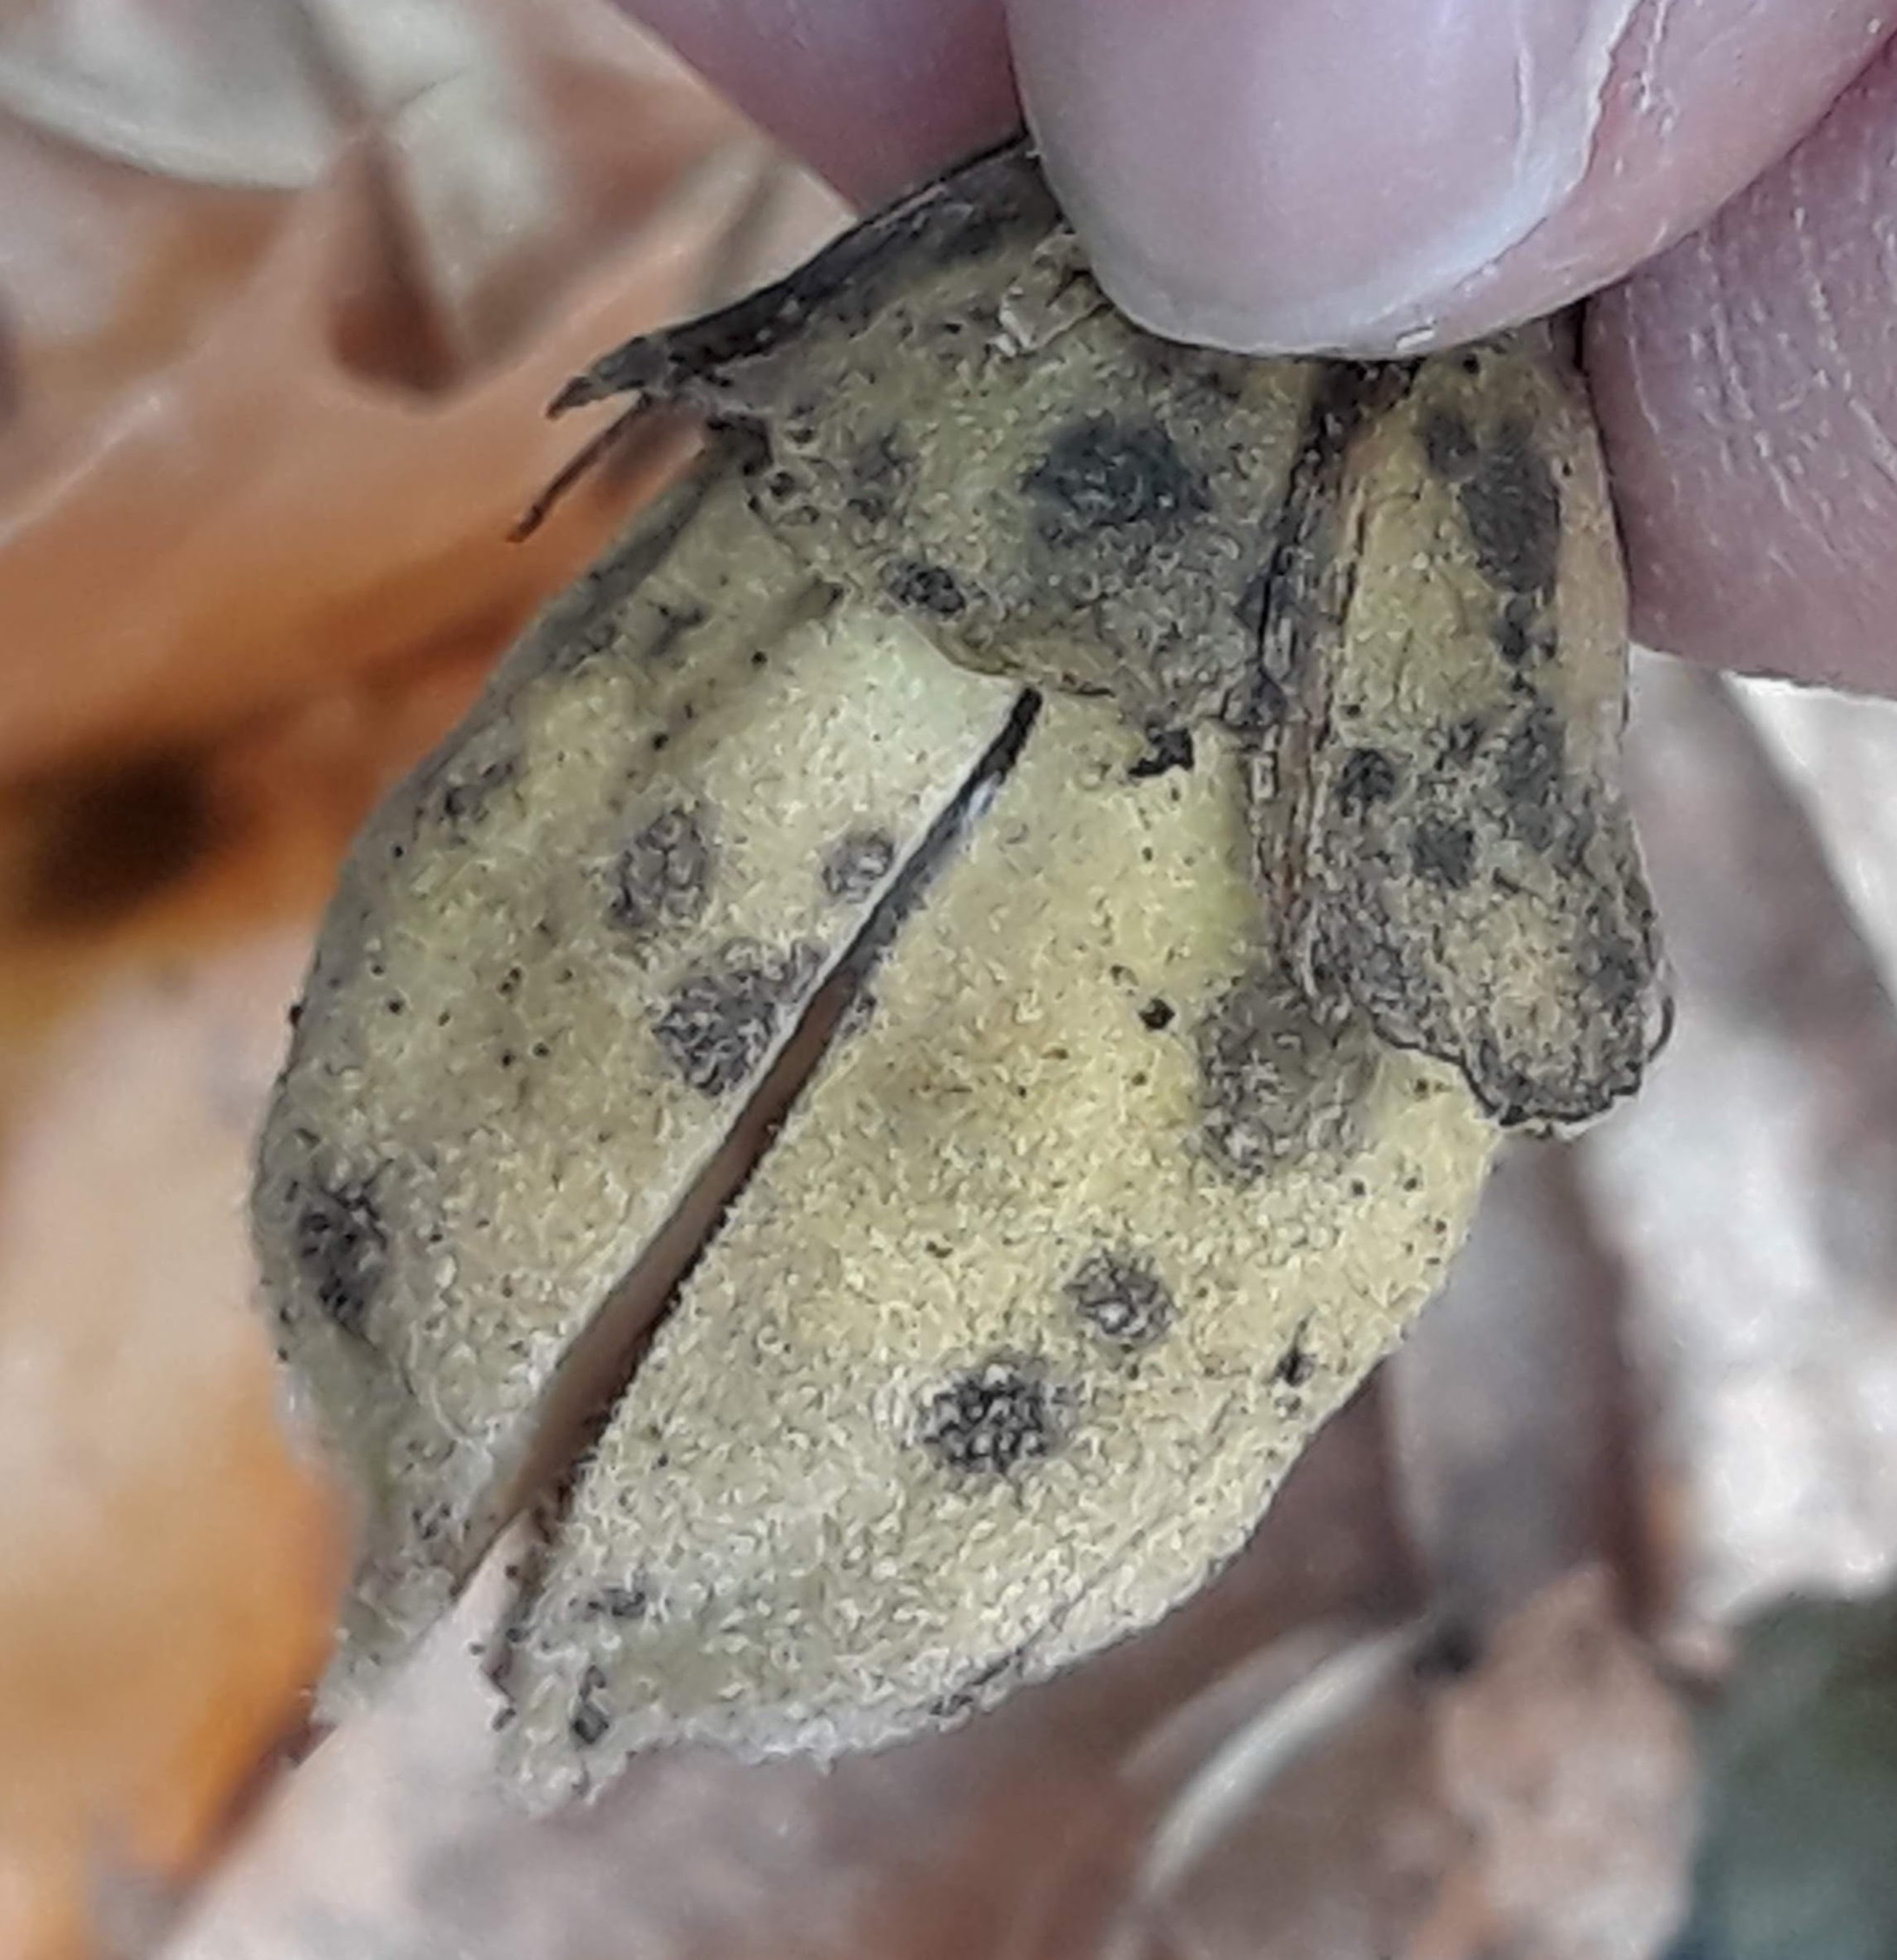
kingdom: Plantae
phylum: Tracheophyta
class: Magnoliopsida
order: Malvales
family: Malvaceae
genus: Hibiscus
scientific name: Hibiscus syriacus
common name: Syrian ketmia
